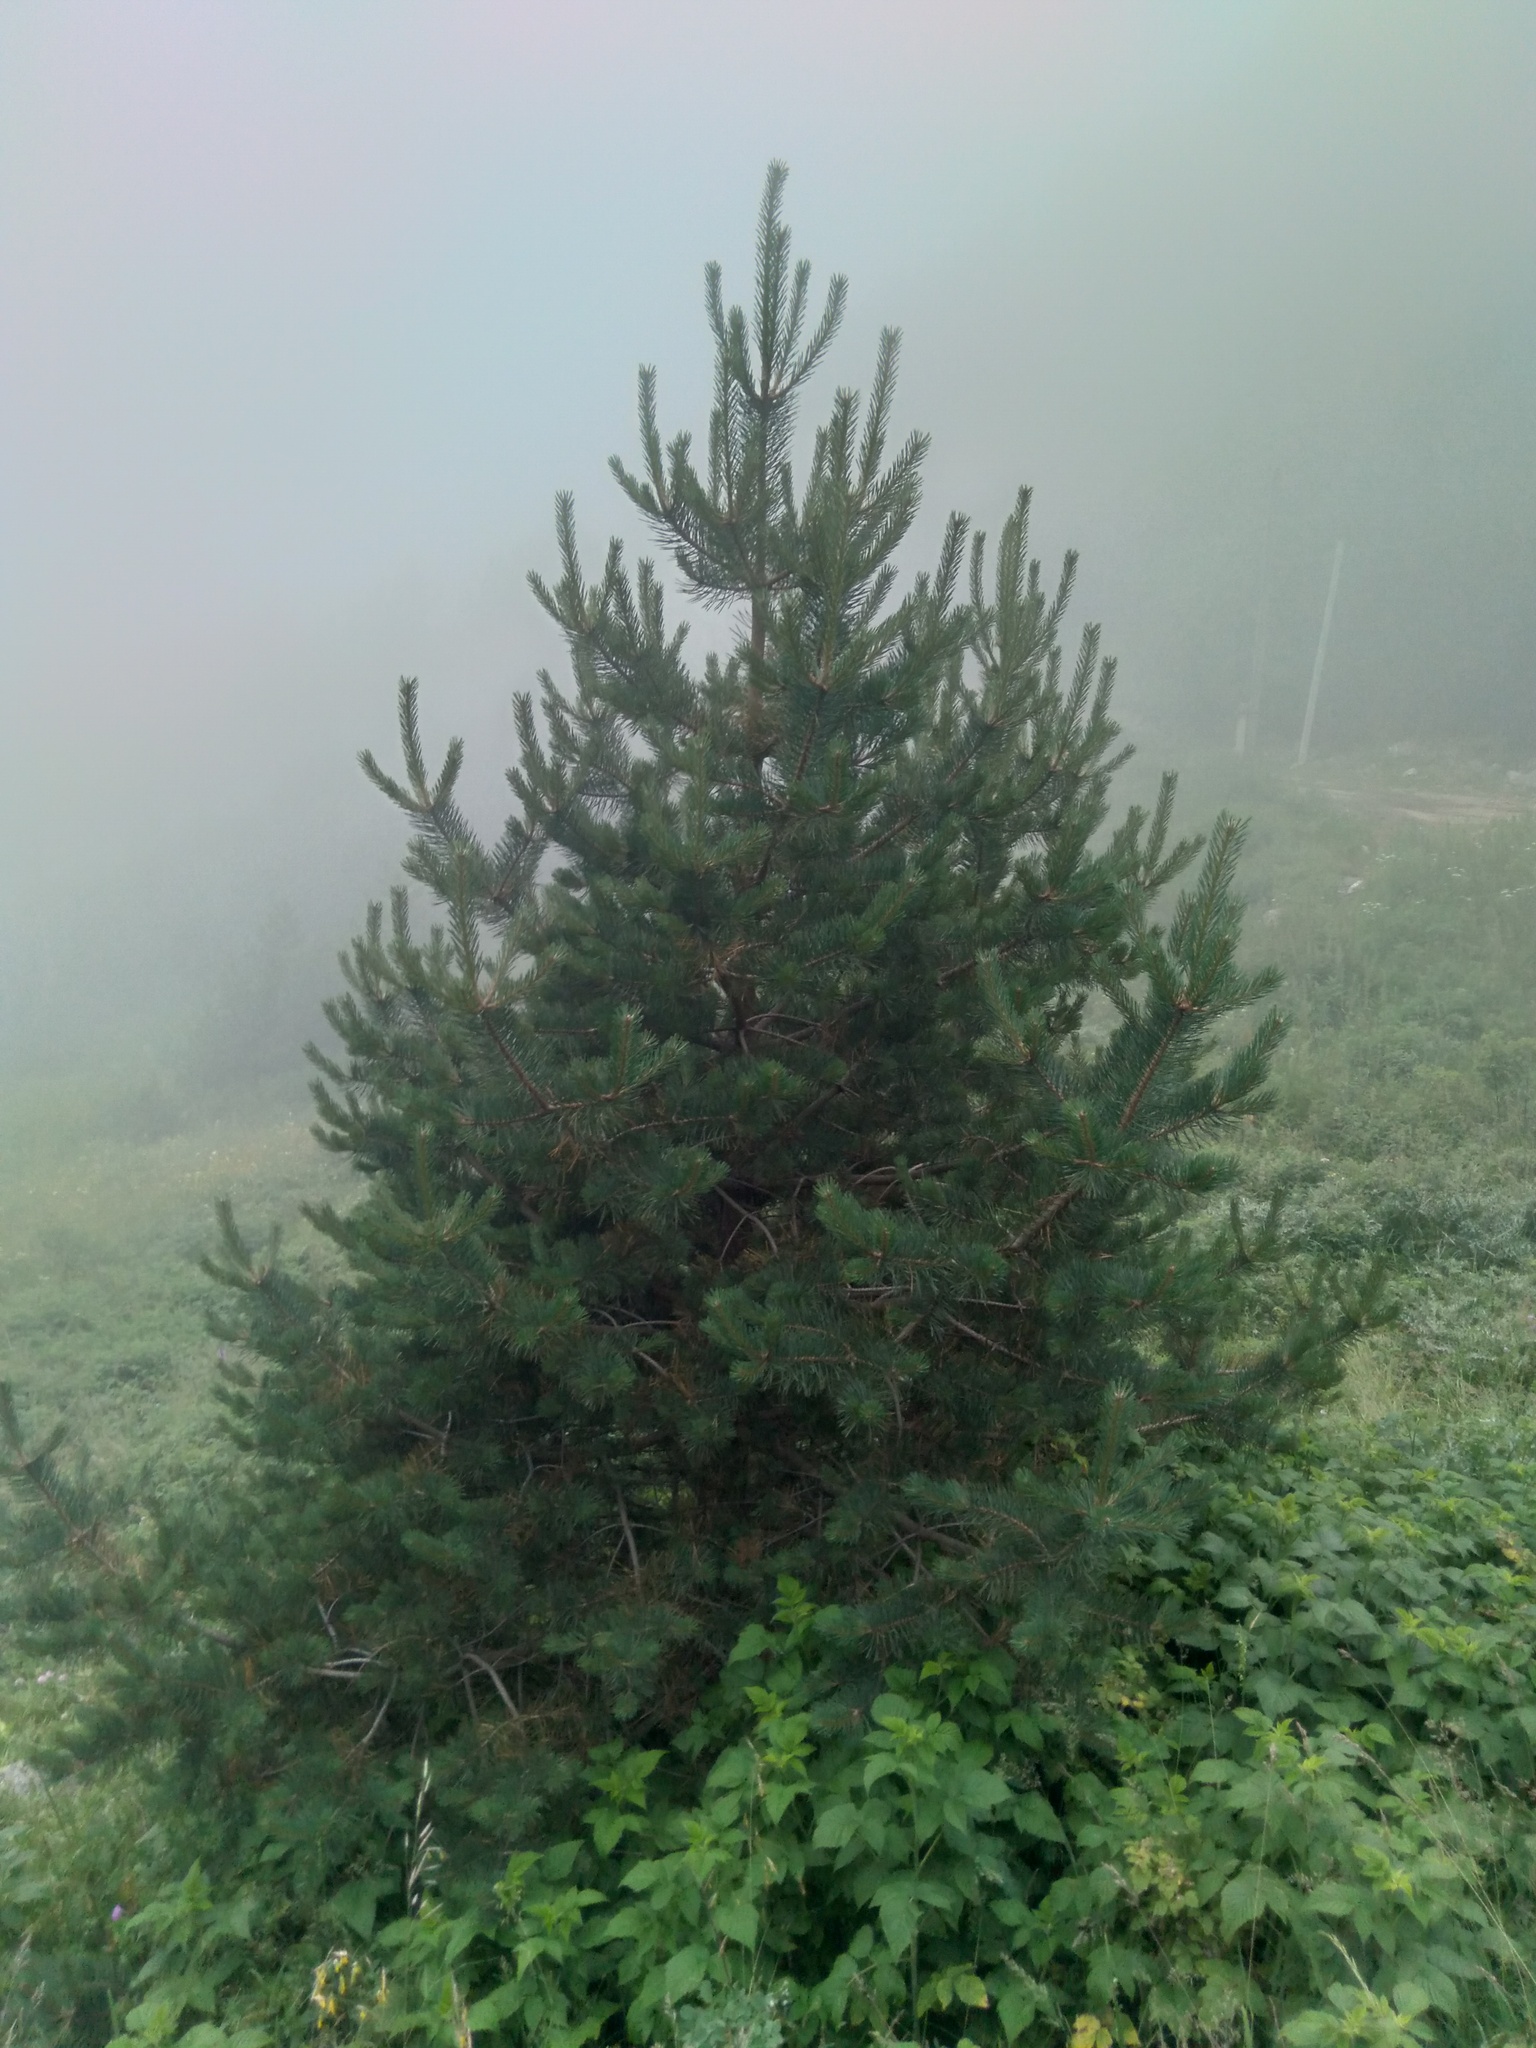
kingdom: Plantae
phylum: Tracheophyta
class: Pinopsida
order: Pinales
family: Pinaceae
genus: Pinus
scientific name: Pinus sylvestris
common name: Scots pine
